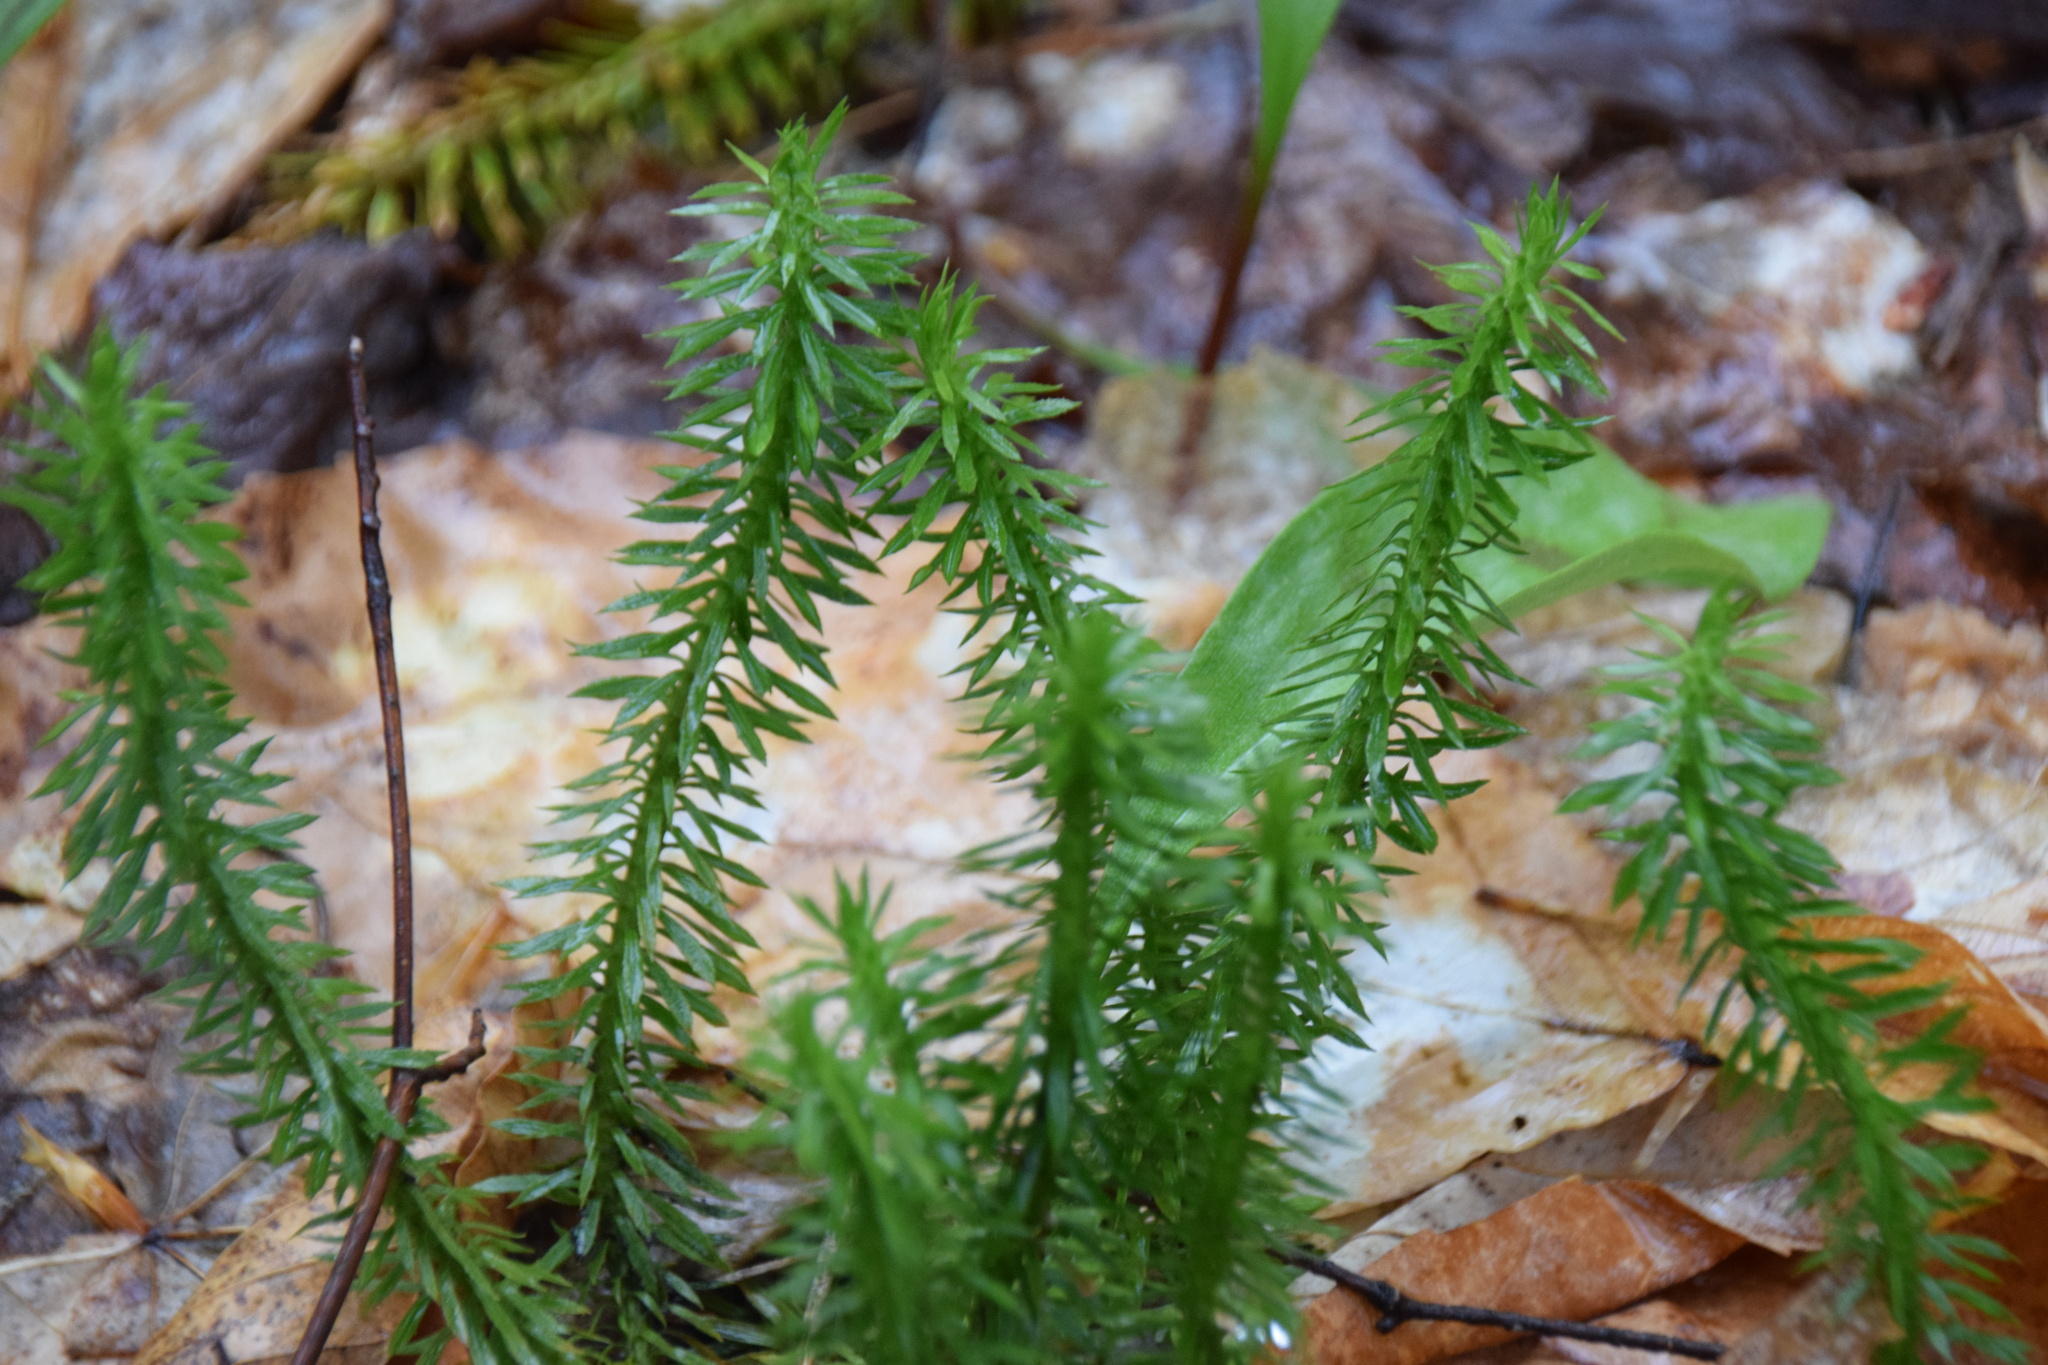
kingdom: Plantae
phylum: Tracheophyta
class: Lycopodiopsida
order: Lycopodiales
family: Lycopodiaceae
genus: Huperzia
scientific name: Huperzia lucidula
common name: Shining clubmoss
